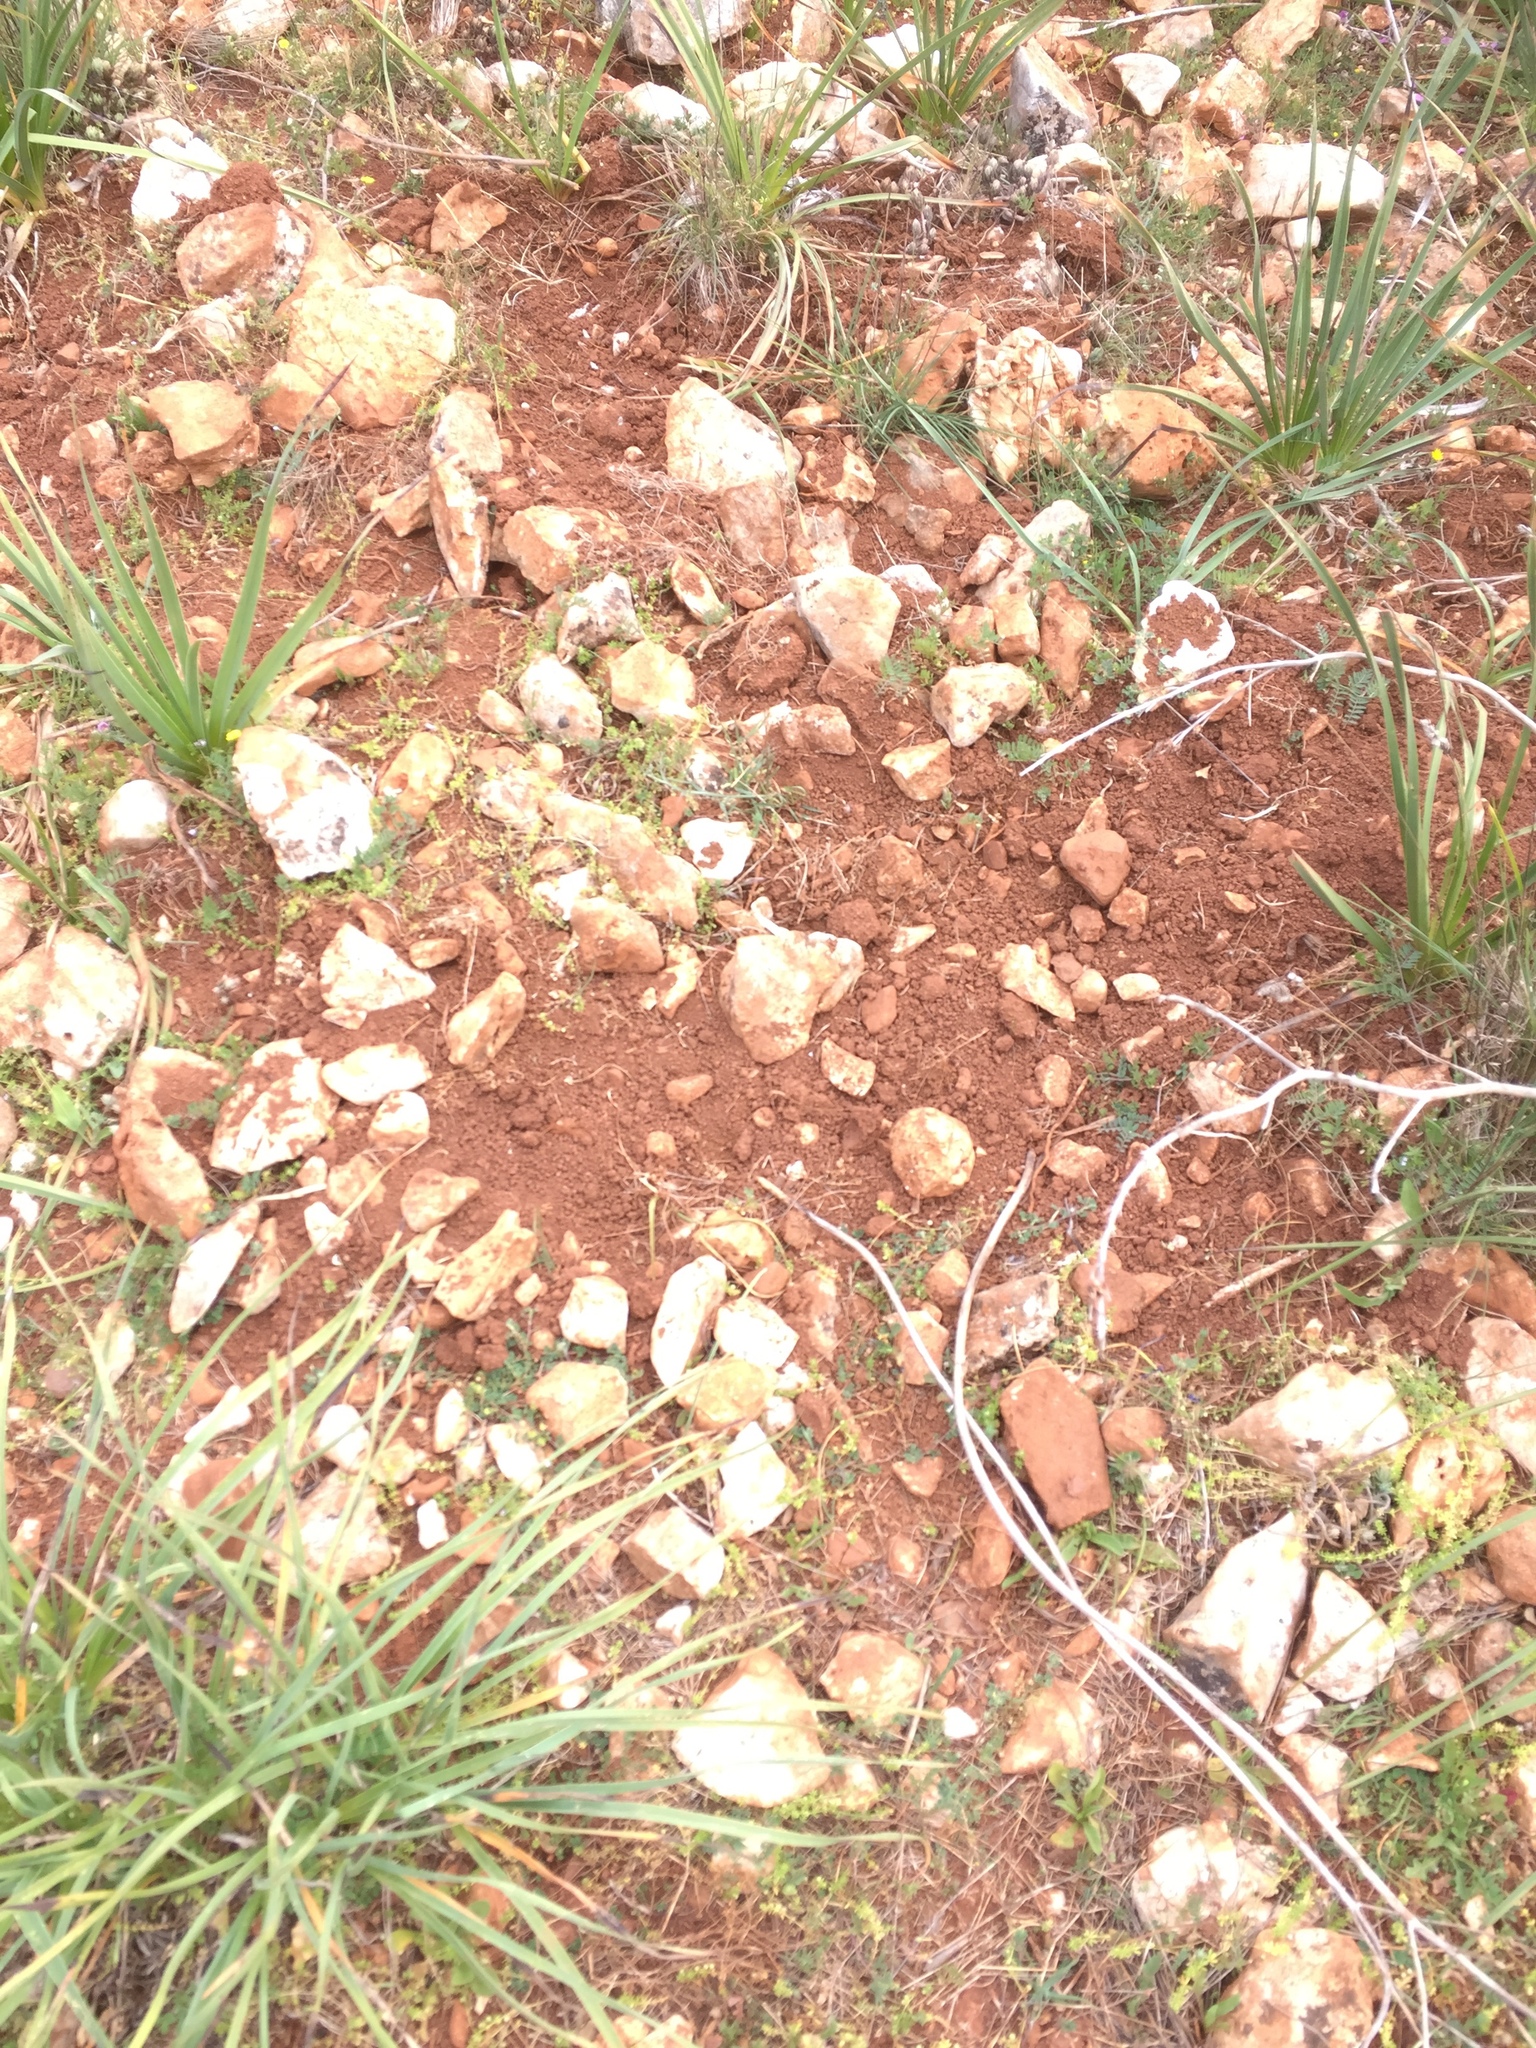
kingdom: Animalia
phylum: Chordata
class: Mammalia
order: Artiodactyla
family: Suidae
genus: Sus
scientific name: Sus scrofa
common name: Wild boar
